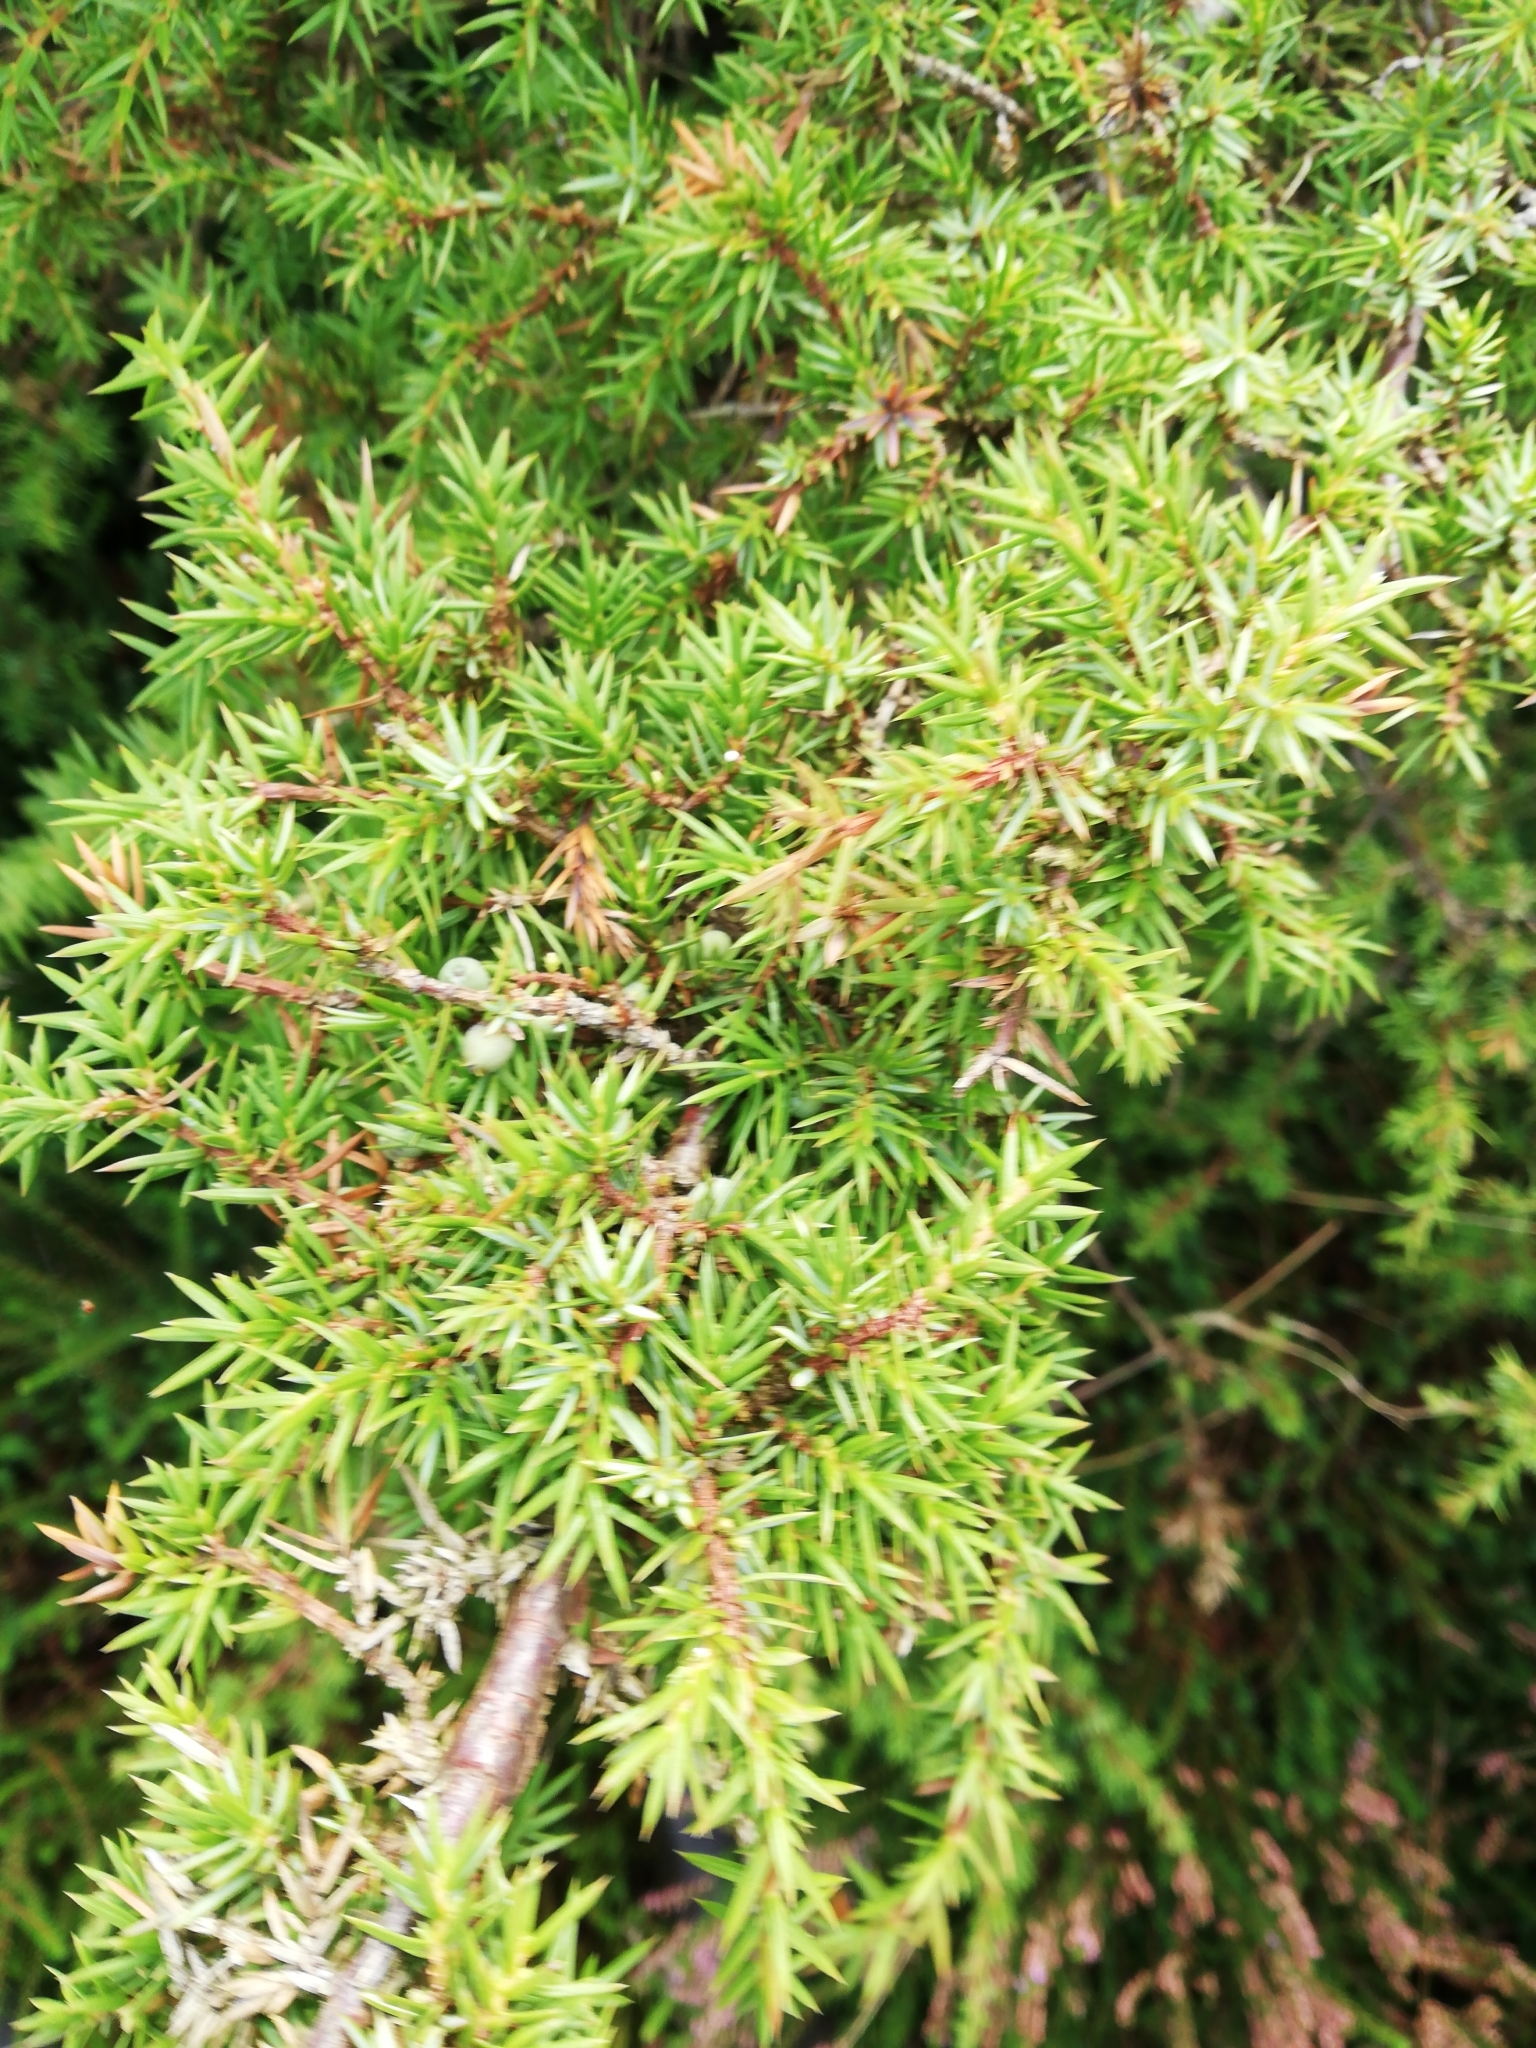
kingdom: Plantae
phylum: Tracheophyta
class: Pinopsida
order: Pinales
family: Cupressaceae
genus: Juniperus
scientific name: Juniperus communis
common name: Common juniper
